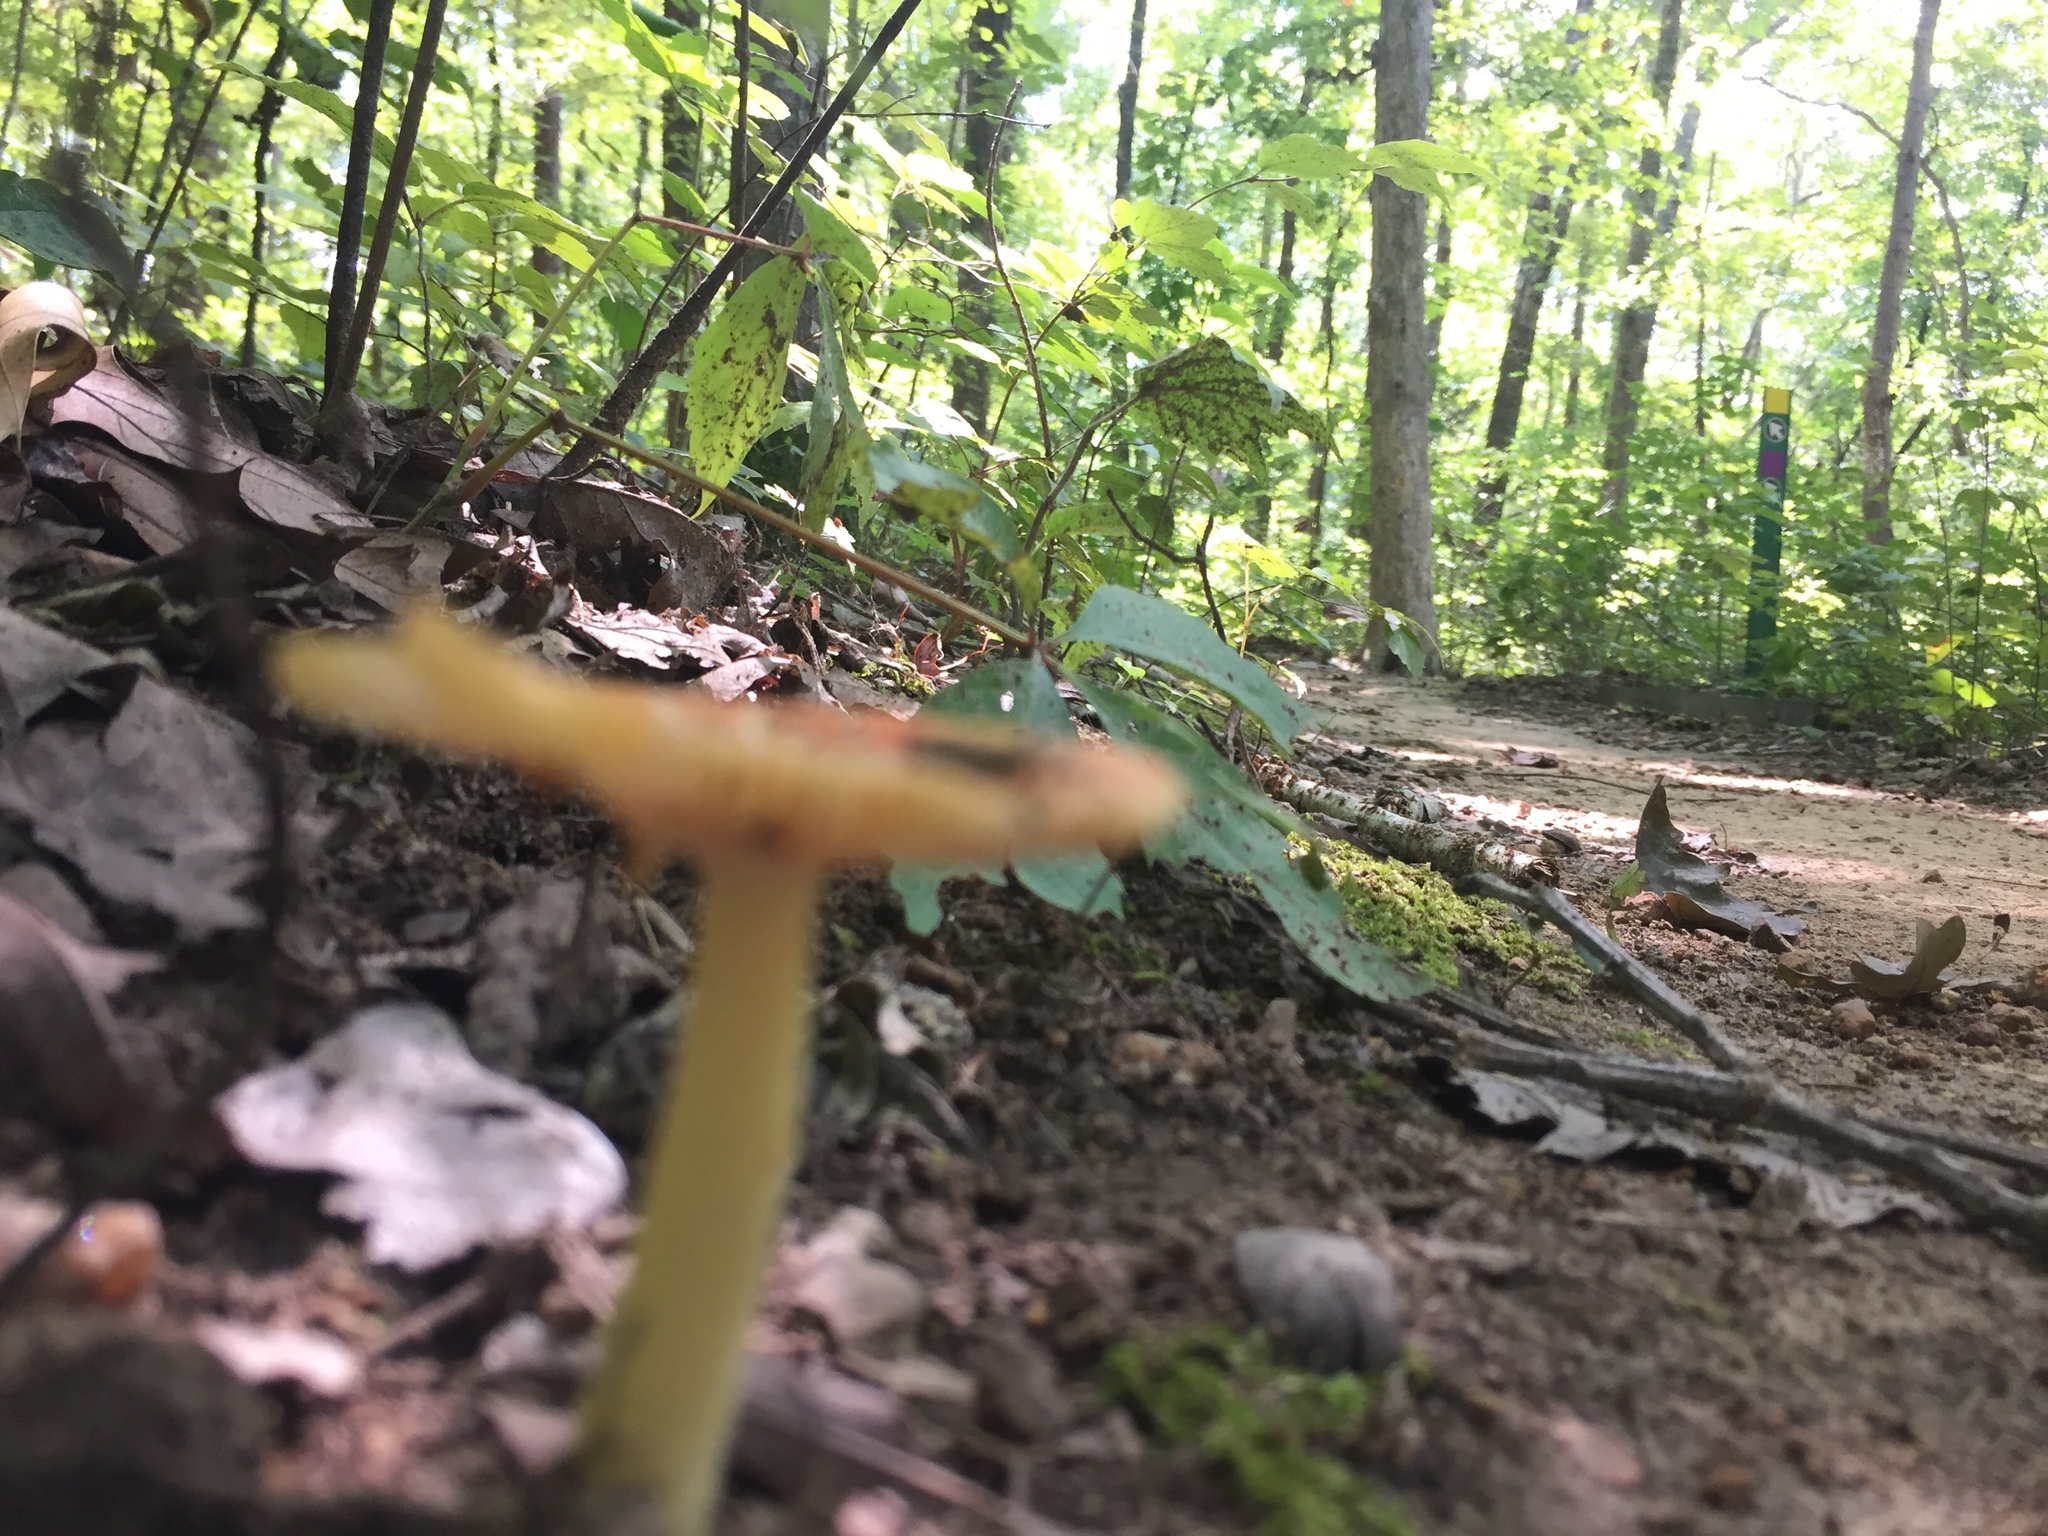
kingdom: Fungi
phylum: Basidiomycota
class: Agaricomycetes
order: Agaricales
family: Amanitaceae
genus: Amanita
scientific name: Amanita parcivolvata
